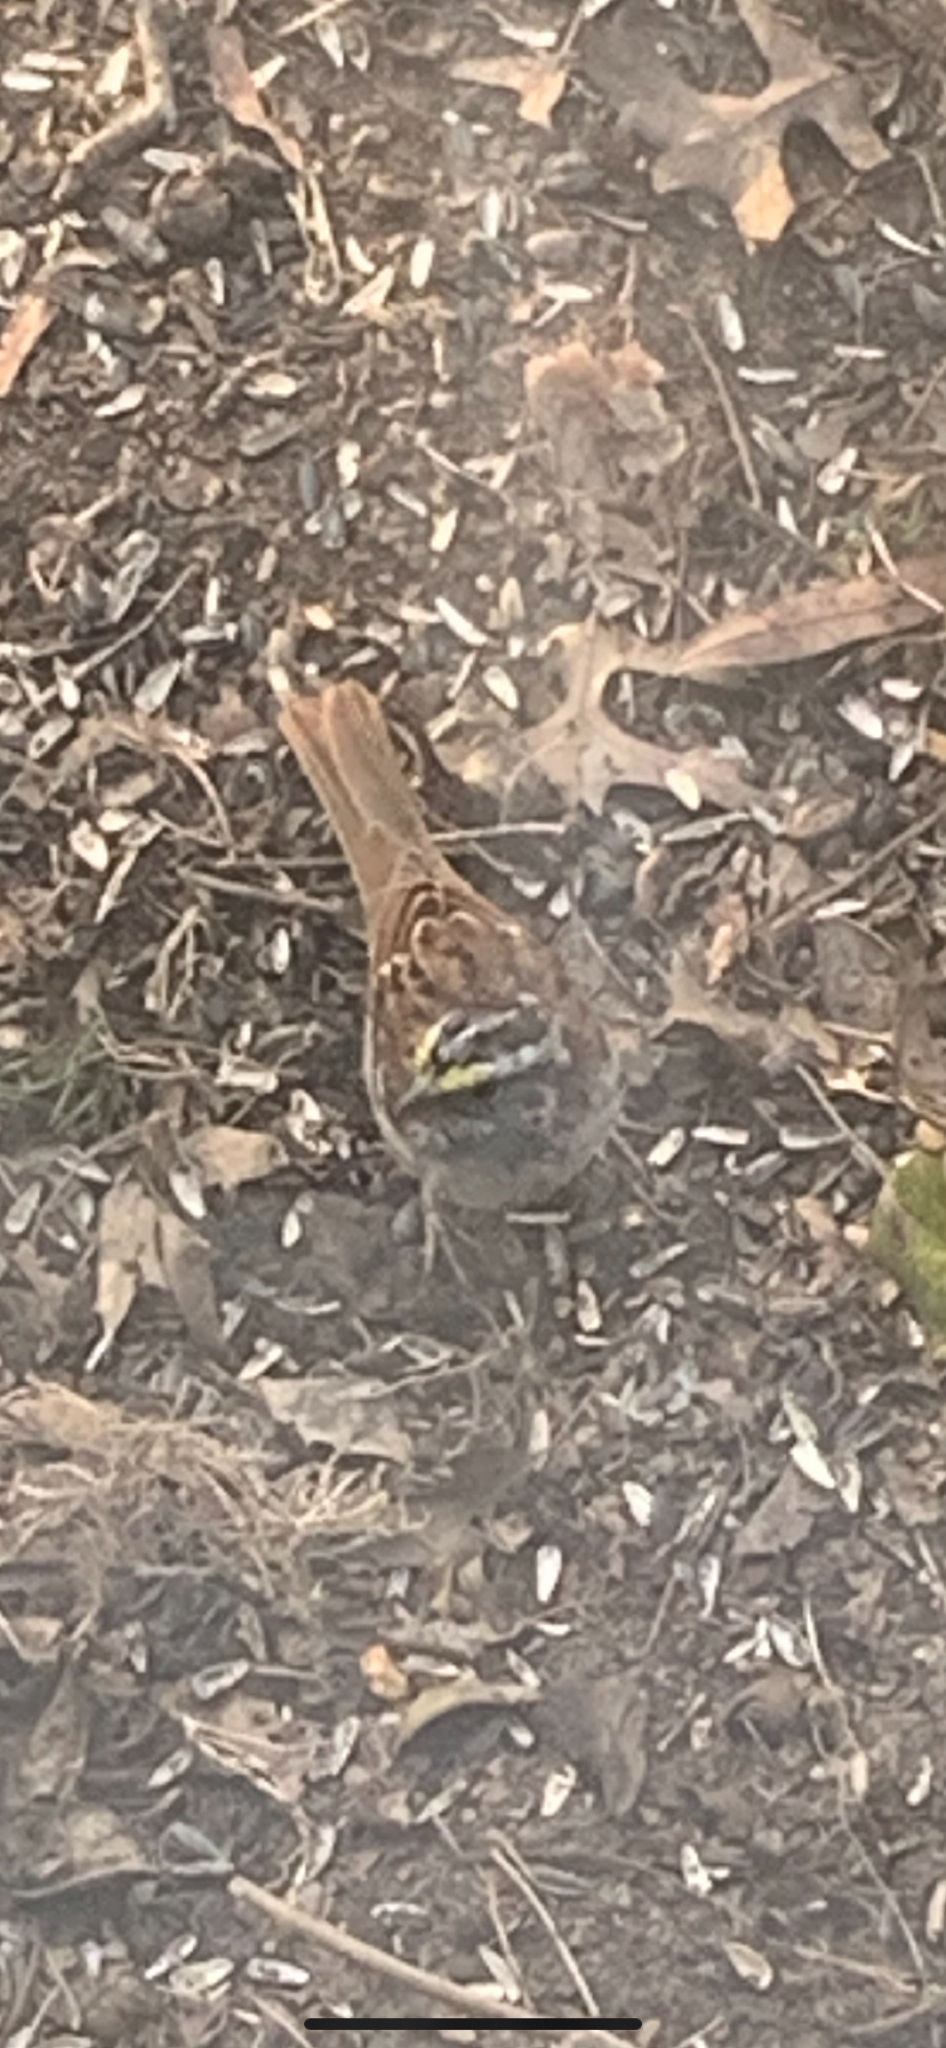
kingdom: Animalia
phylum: Chordata
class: Aves
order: Passeriformes
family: Passerellidae
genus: Zonotrichia
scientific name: Zonotrichia albicollis
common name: White-throated sparrow
